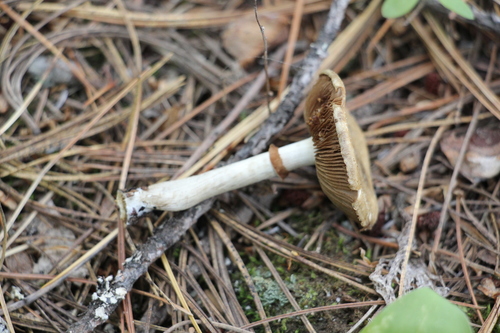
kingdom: Fungi
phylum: Basidiomycota
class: Agaricomycetes
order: Agaricales
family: Strophariaceae
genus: Agrocybe
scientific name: Agrocybe praecox
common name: Spring fieldcap
